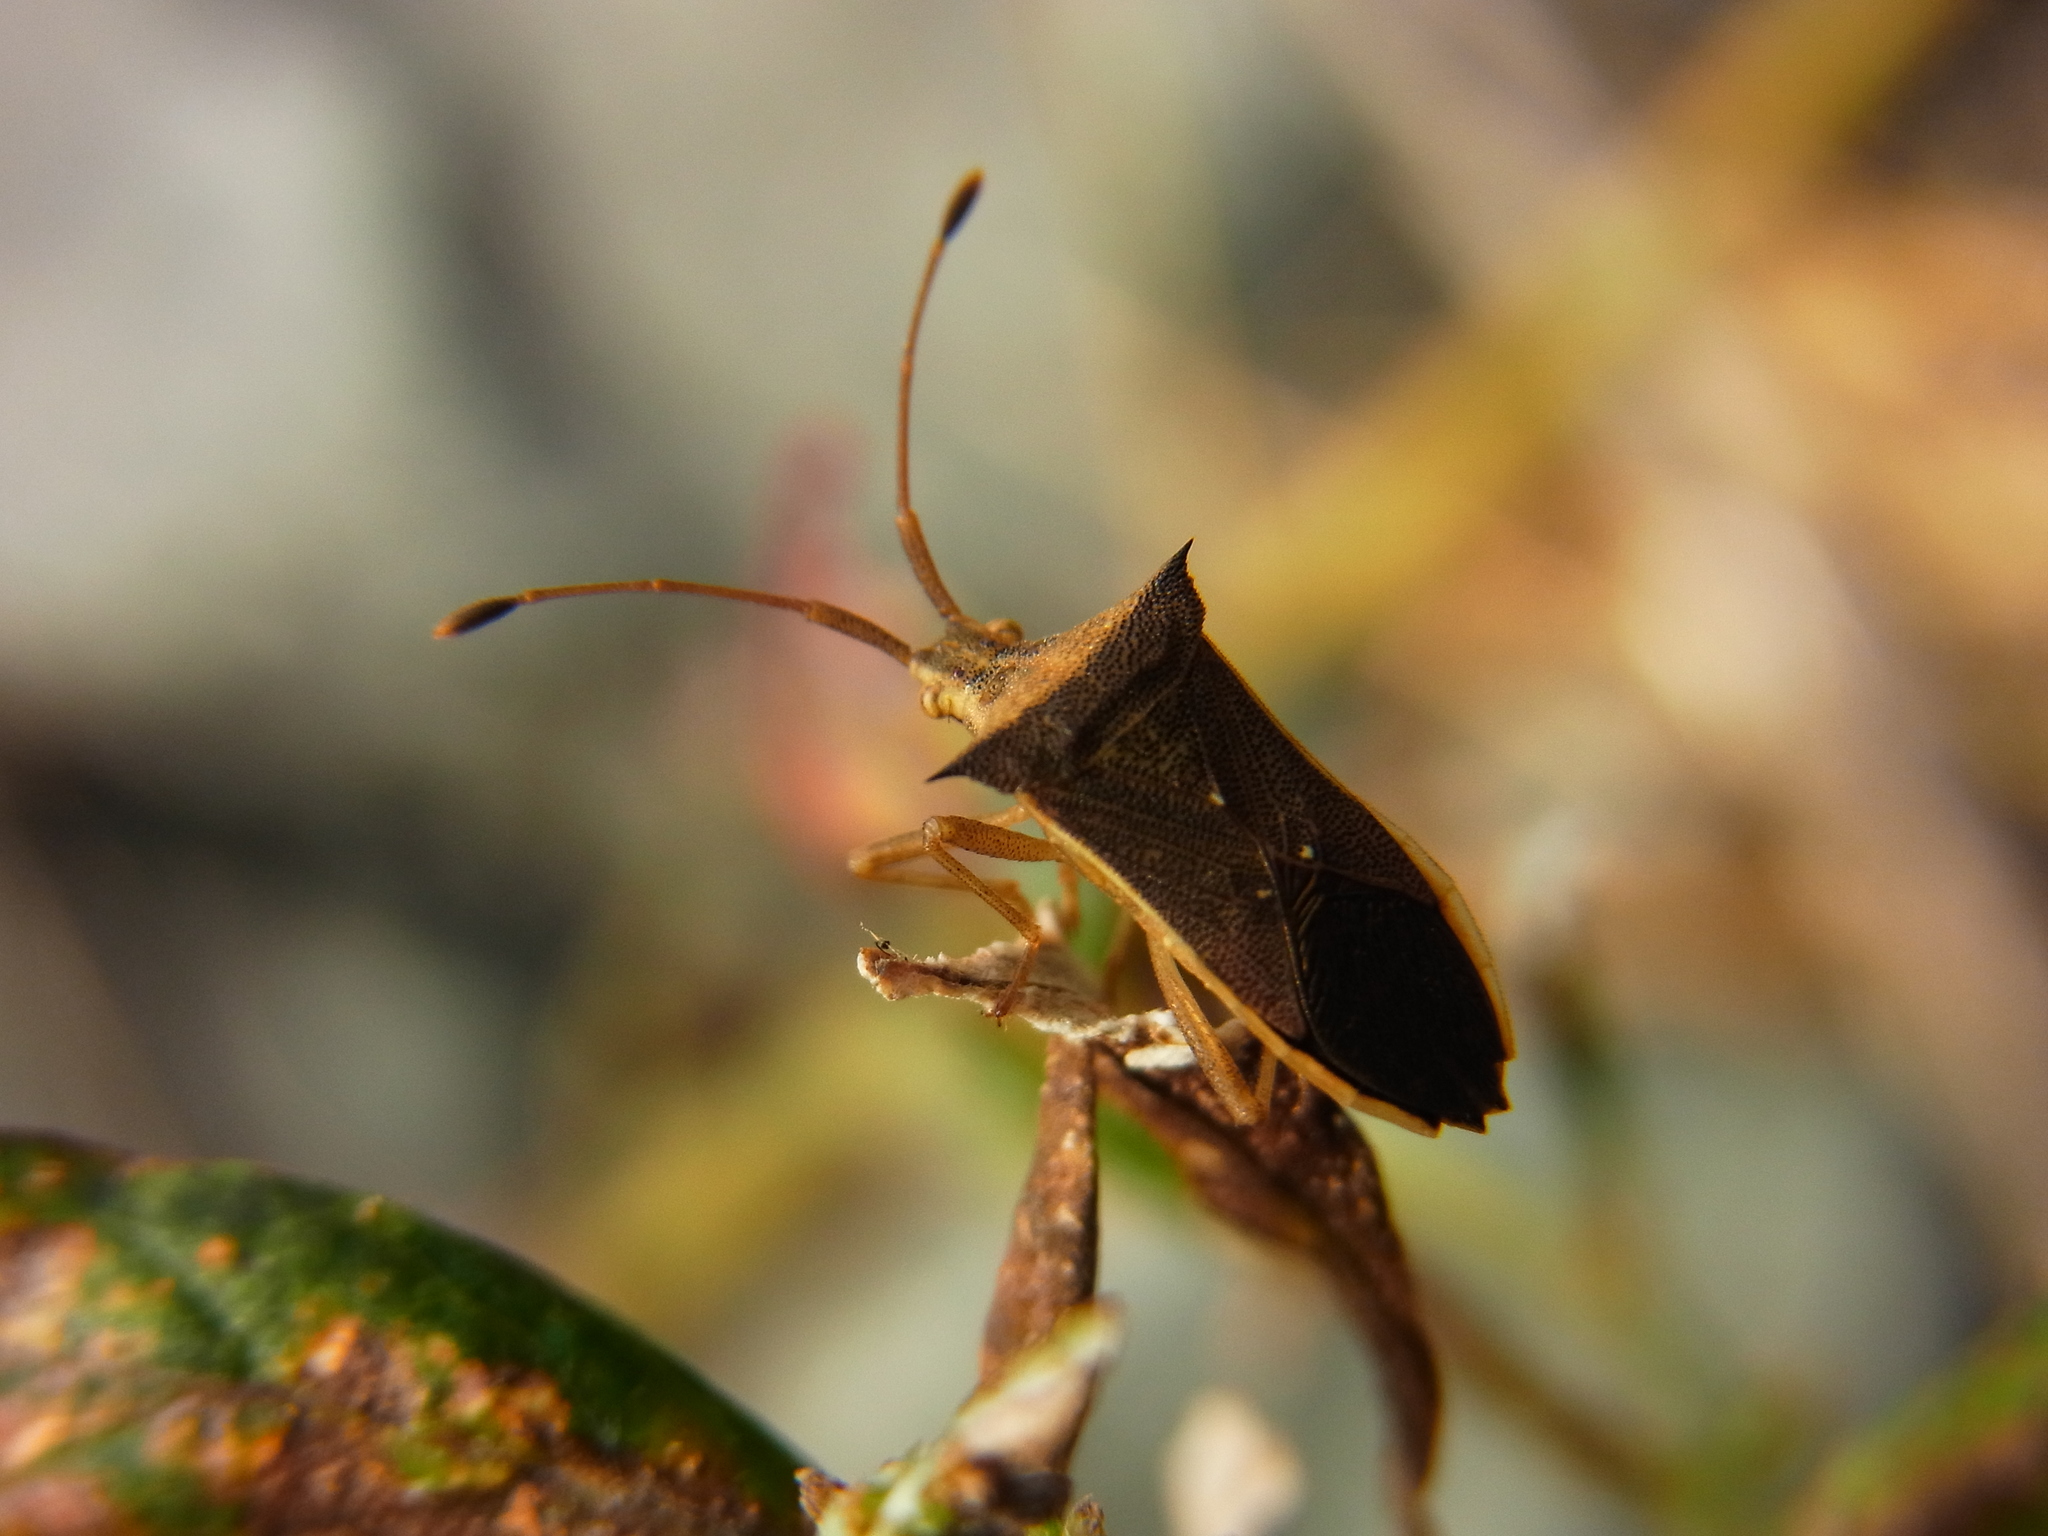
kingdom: Animalia
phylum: Arthropoda
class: Insecta
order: Hemiptera
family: Coreidae
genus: Cletus
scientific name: Cletus schmidti
